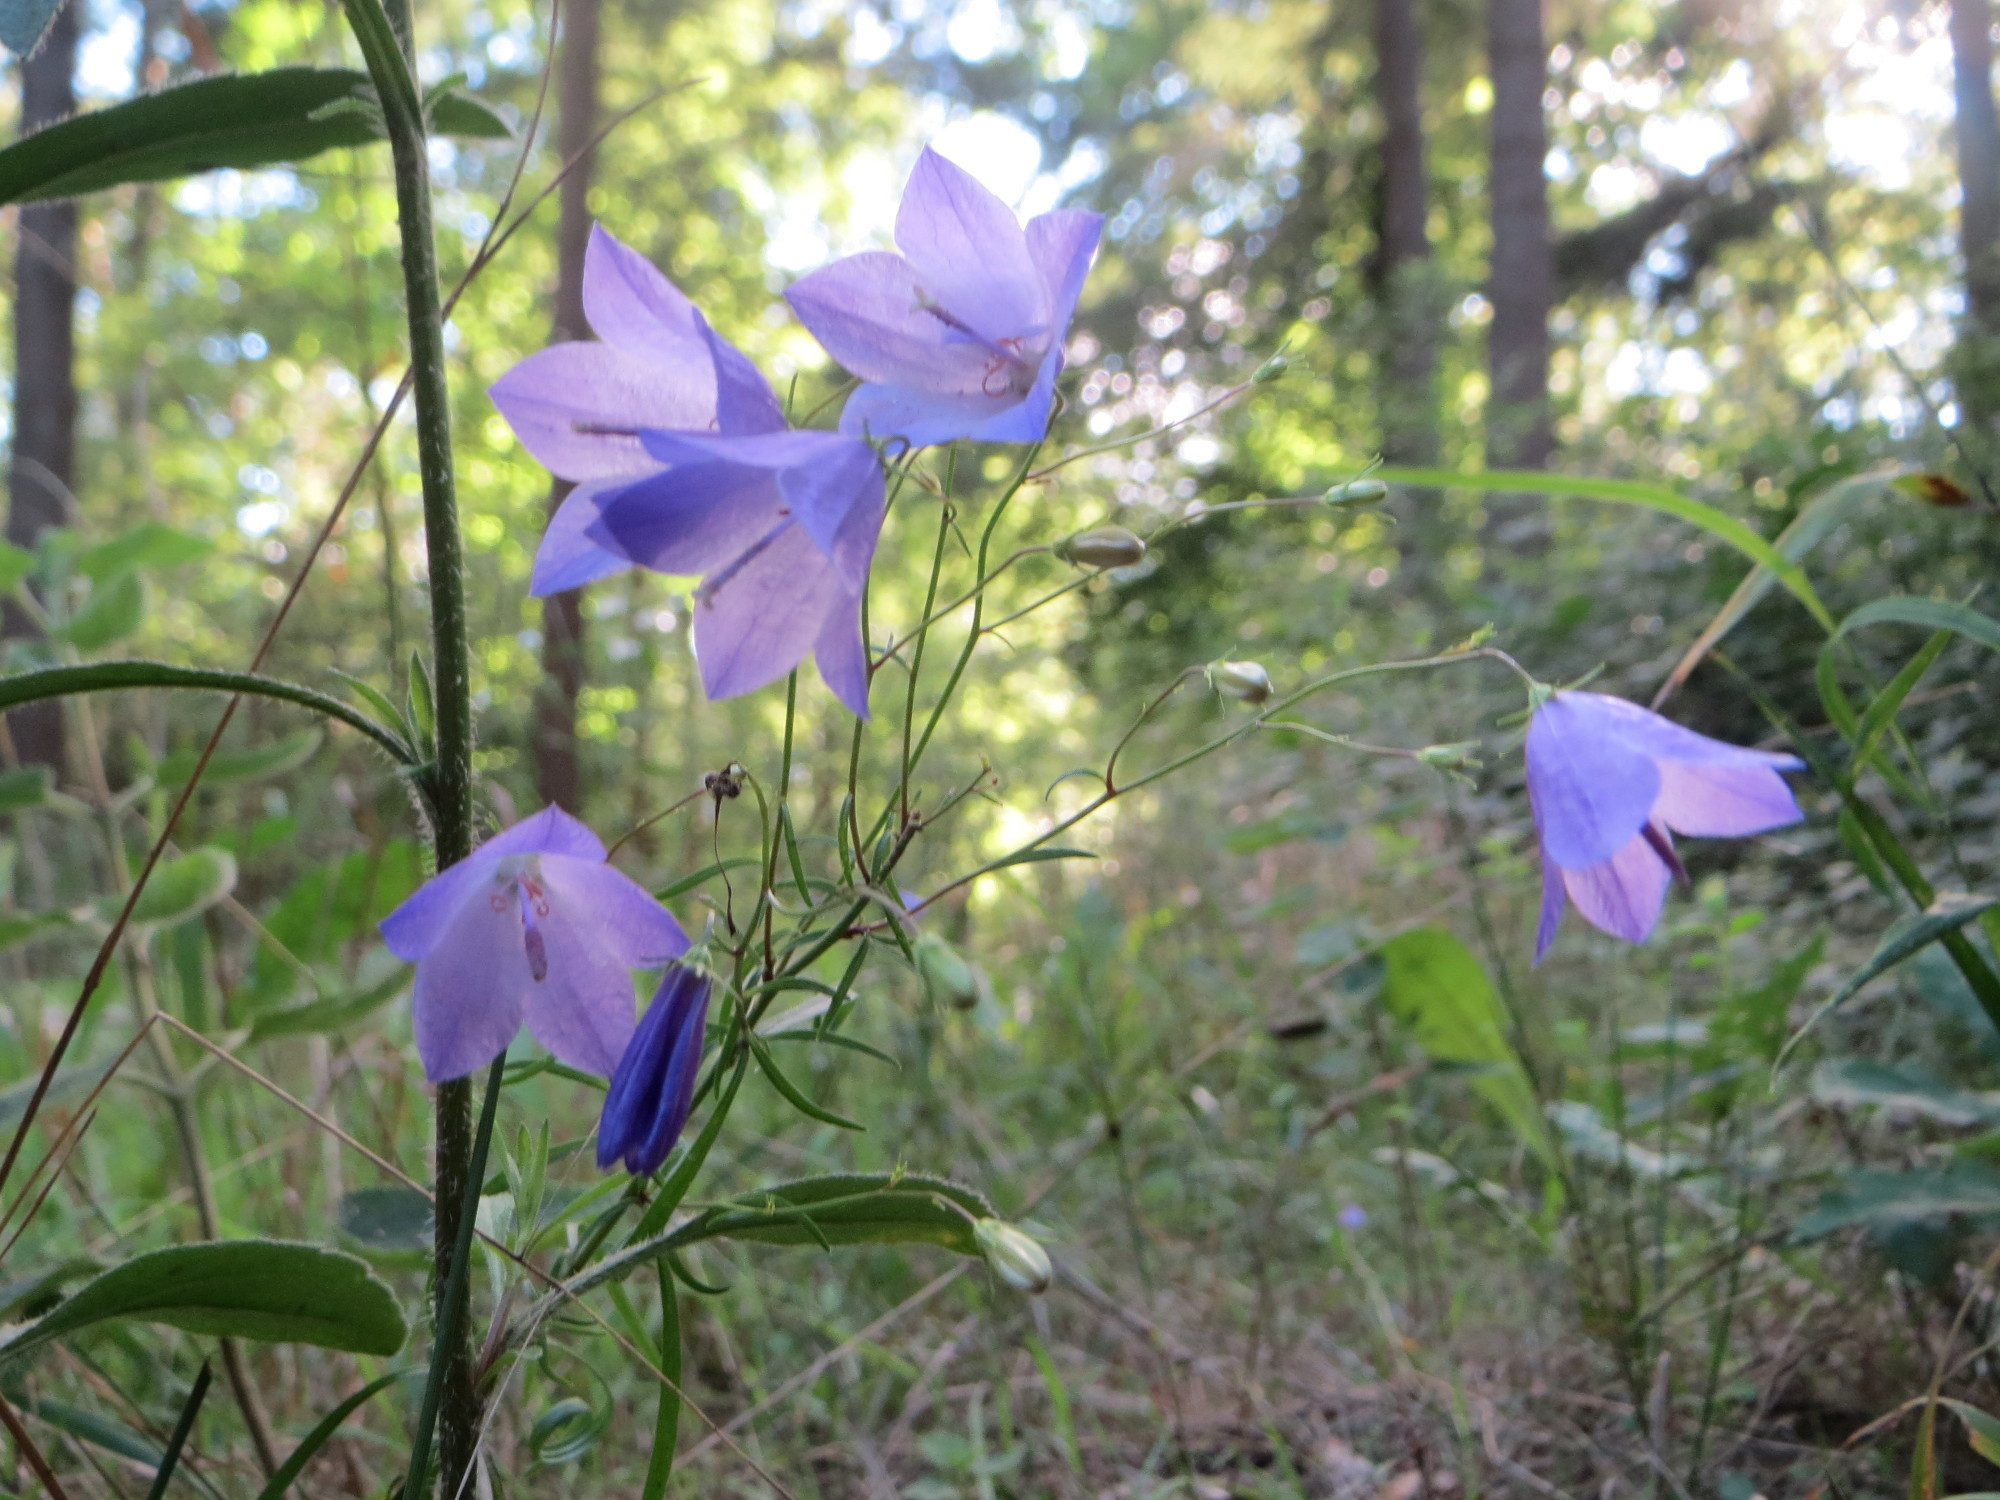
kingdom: Plantae
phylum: Tracheophyta
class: Magnoliopsida
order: Asterales
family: Campanulaceae
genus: Campanula
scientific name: Campanula rotundifolia
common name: Harebell
